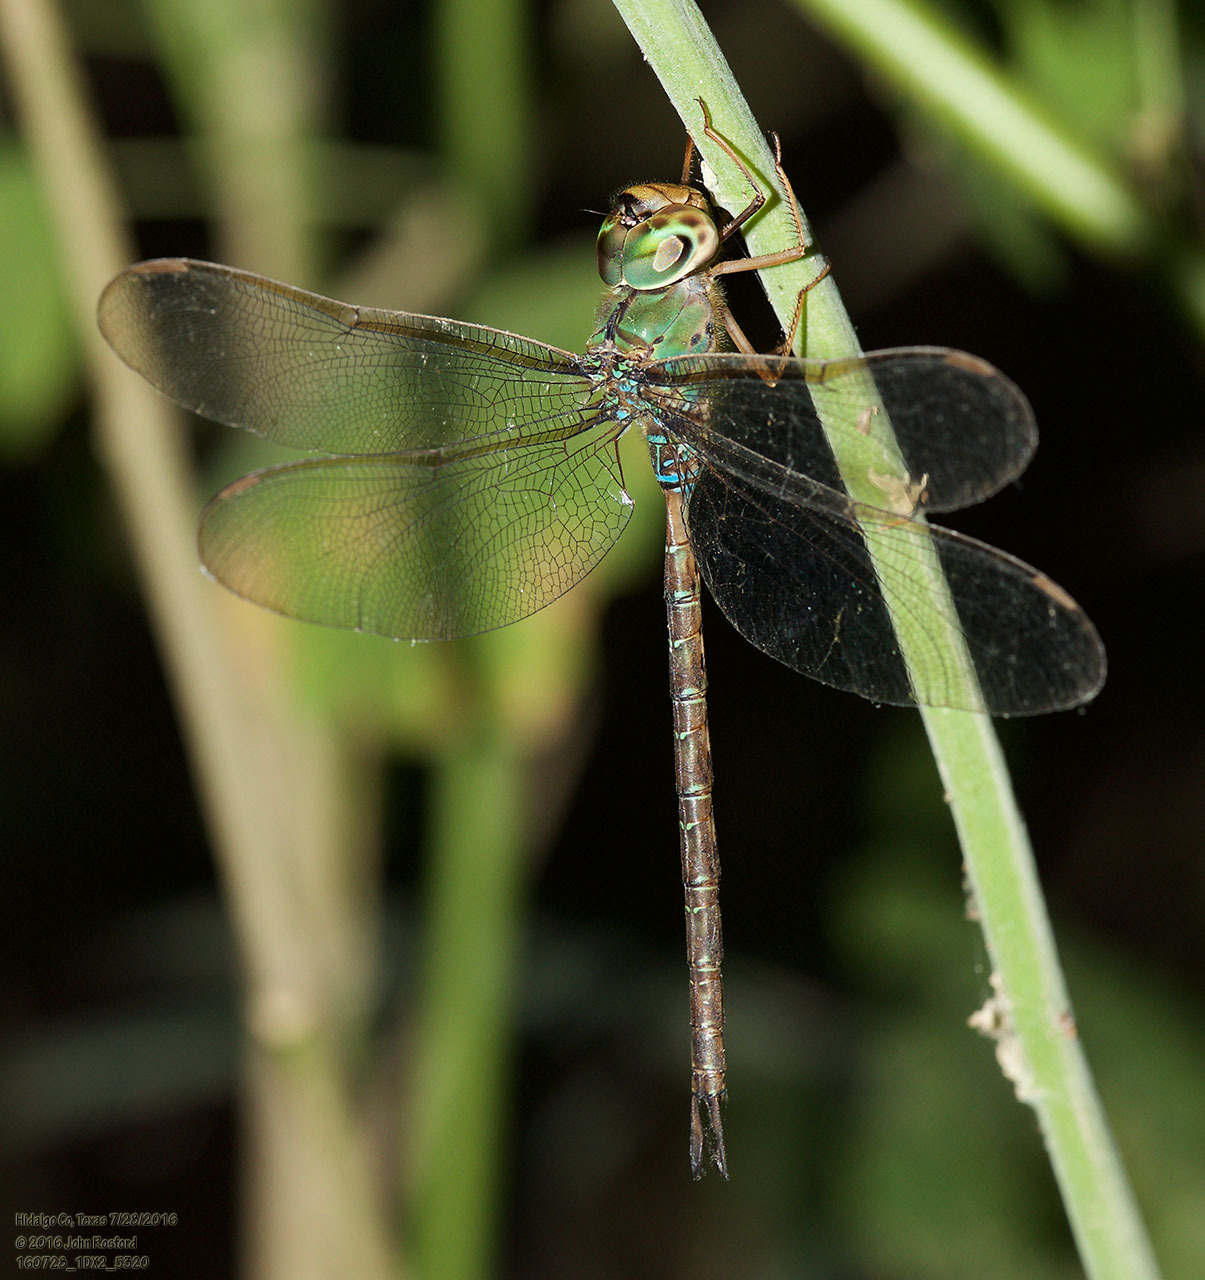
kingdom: Animalia
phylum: Arthropoda
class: Insecta
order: Odonata
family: Aeshnidae
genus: Gynacantha
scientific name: Gynacantha mexicana
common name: Bar-sided darner
